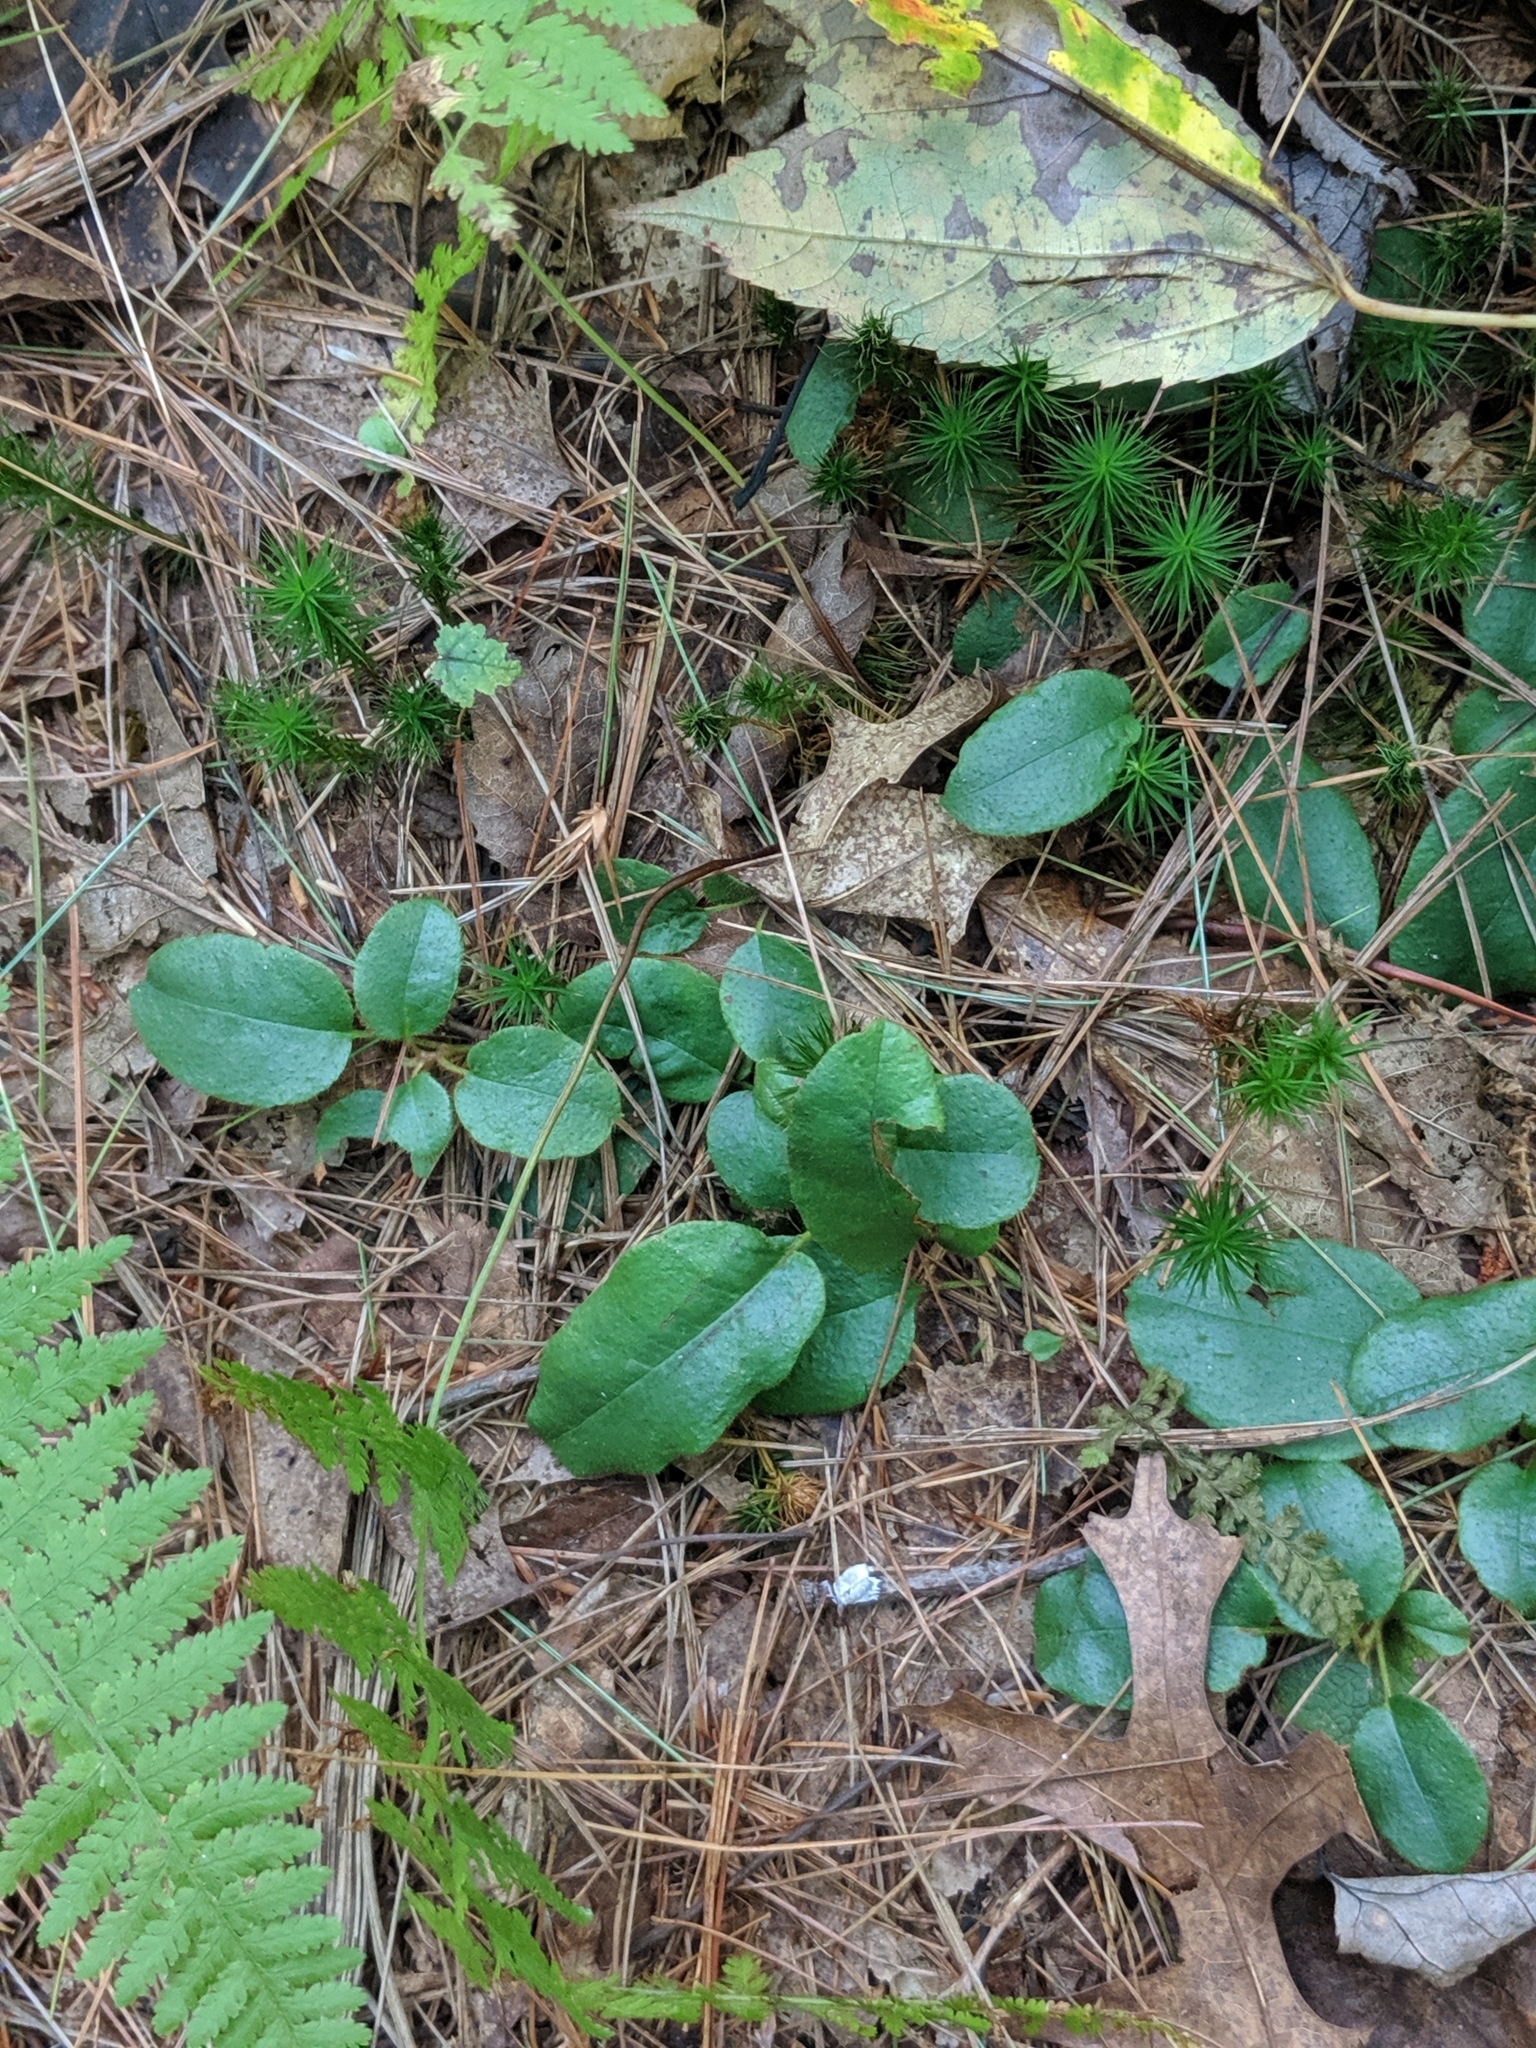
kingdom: Plantae
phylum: Tracheophyta
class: Magnoliopsida
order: Ericales
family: Ericaceae
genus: Epigaea
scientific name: Epigaea repens
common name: Gravelroot
